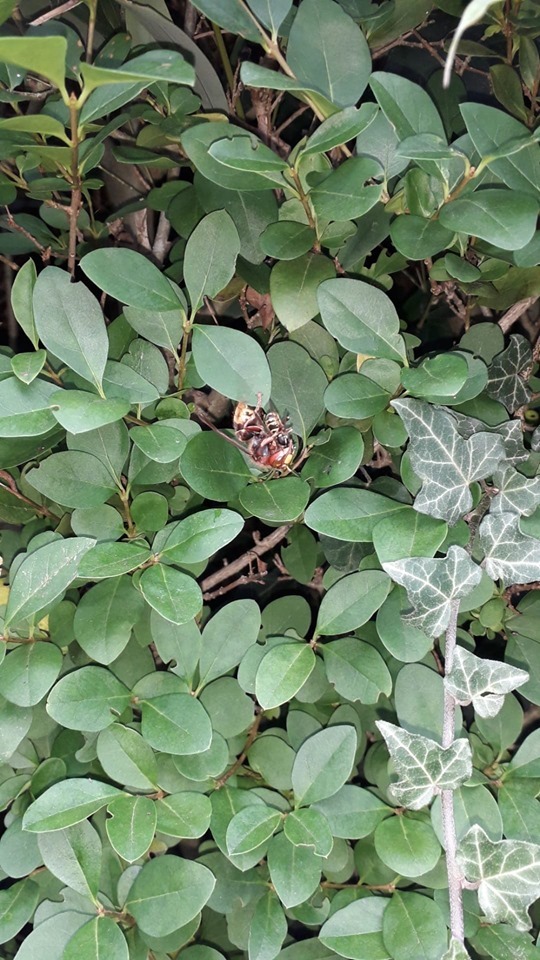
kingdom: Animalia
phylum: Arthropoda
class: Insecta
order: Hymenoptera
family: Vespidae
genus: Vespa
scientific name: Vespa crabro
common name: Hornet
